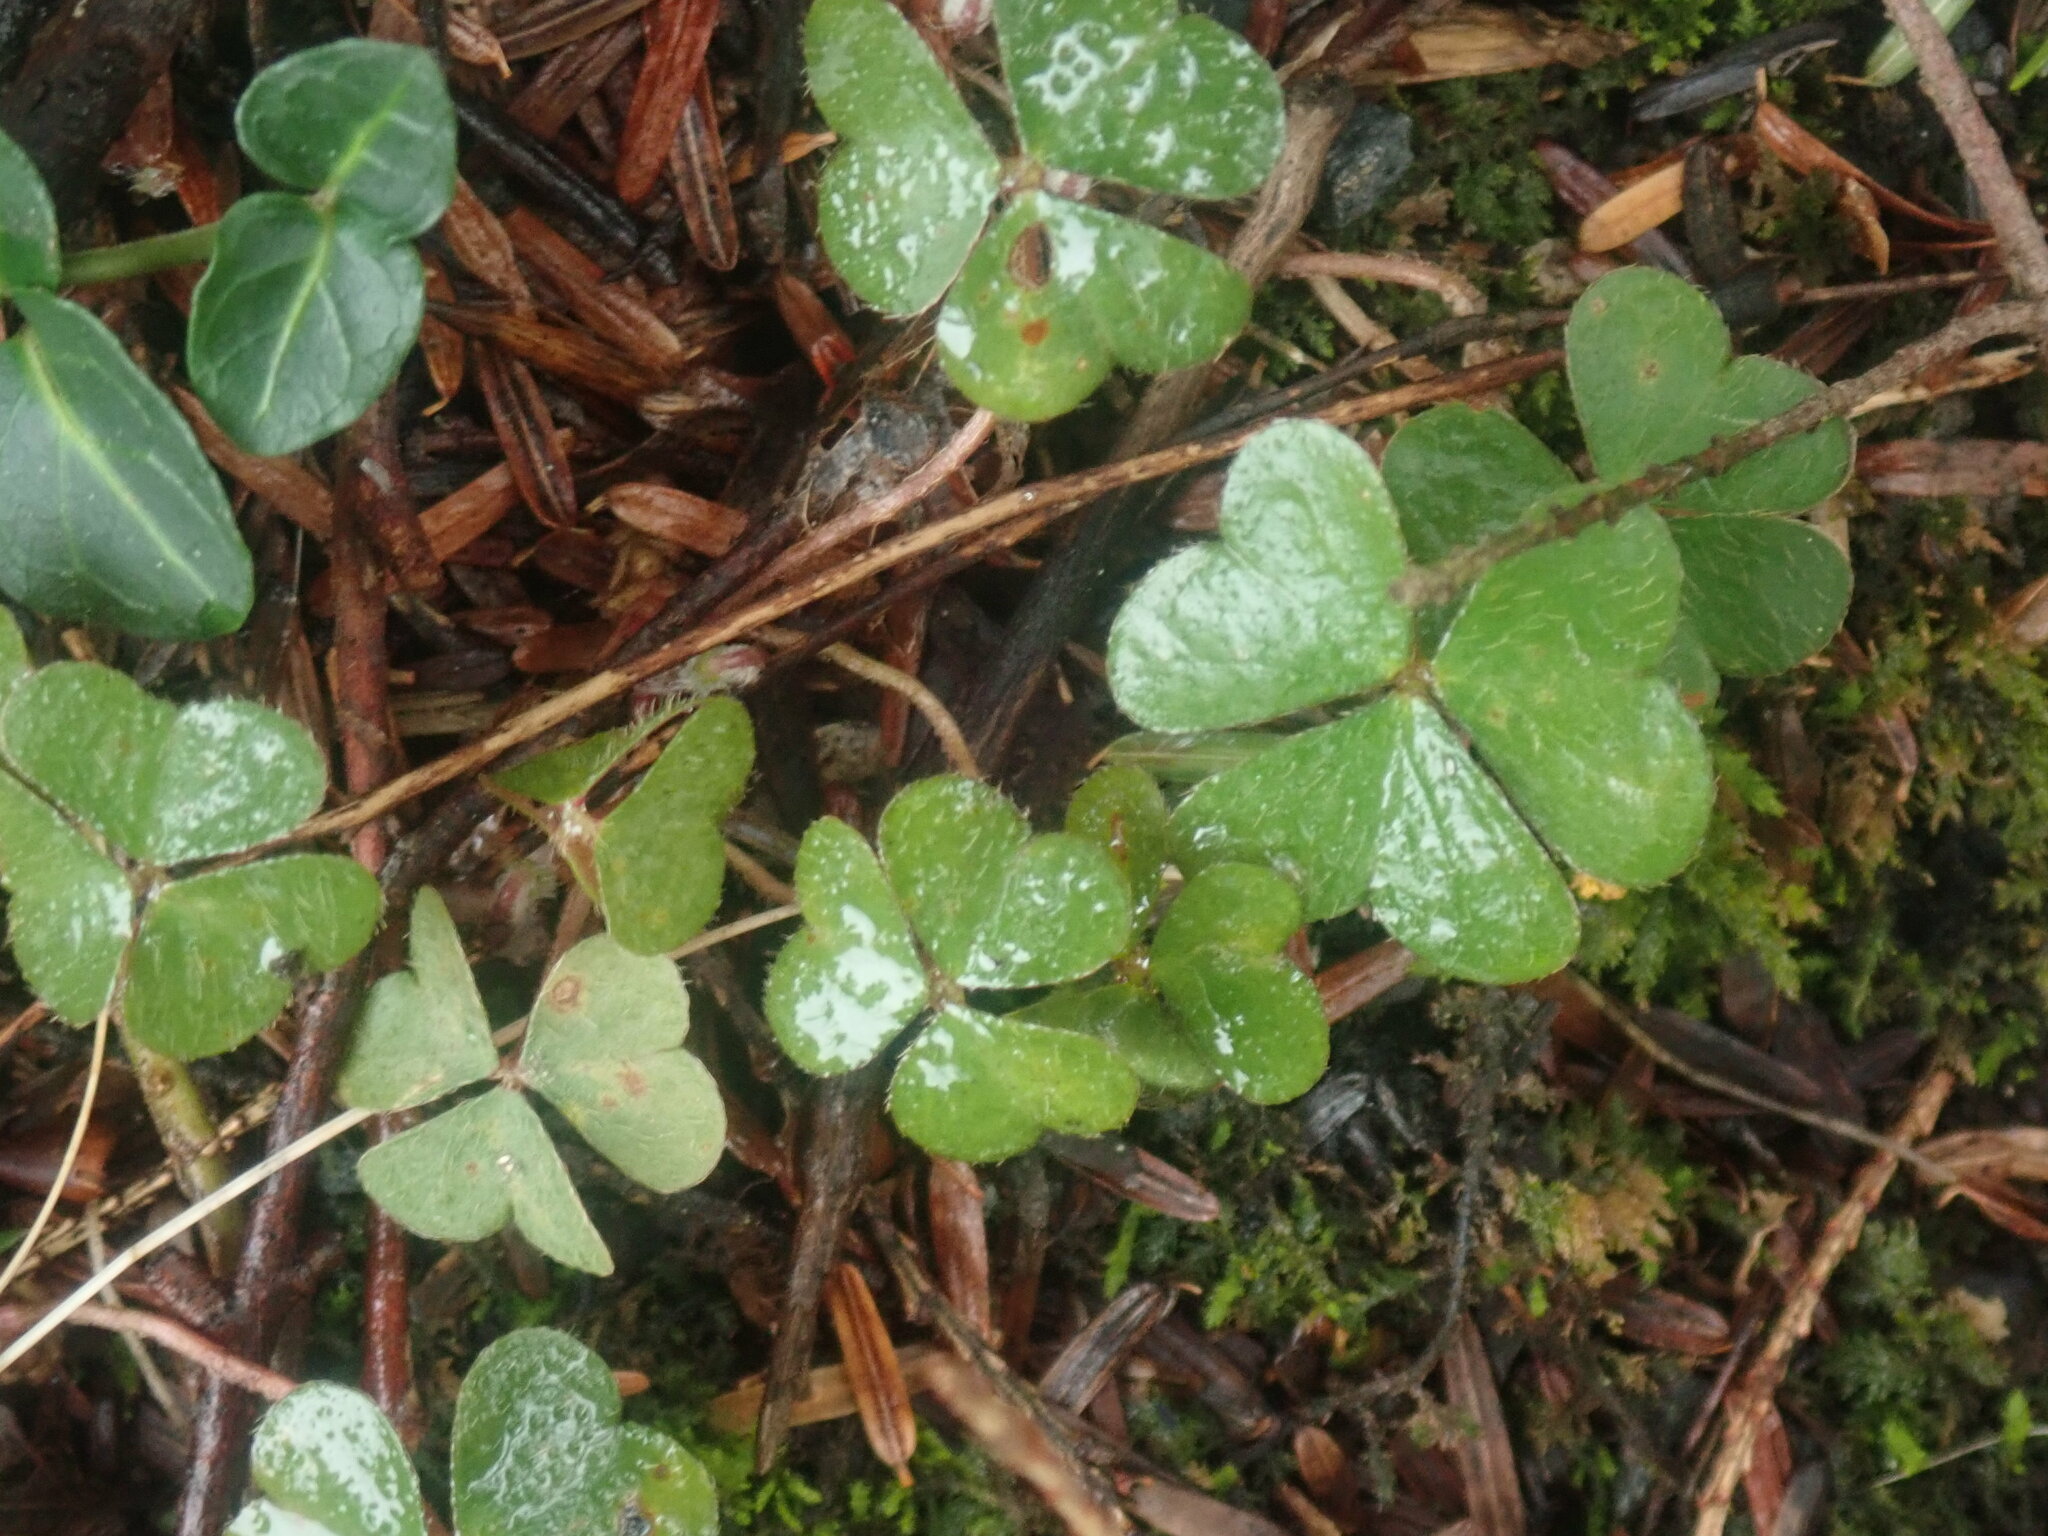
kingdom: Plantae
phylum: Tracheophyta
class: Magnoliopsida
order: Oxalidales
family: Oxalidaceae
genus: Oxalis
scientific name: Oxalis montana
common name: American wood-sorrel
